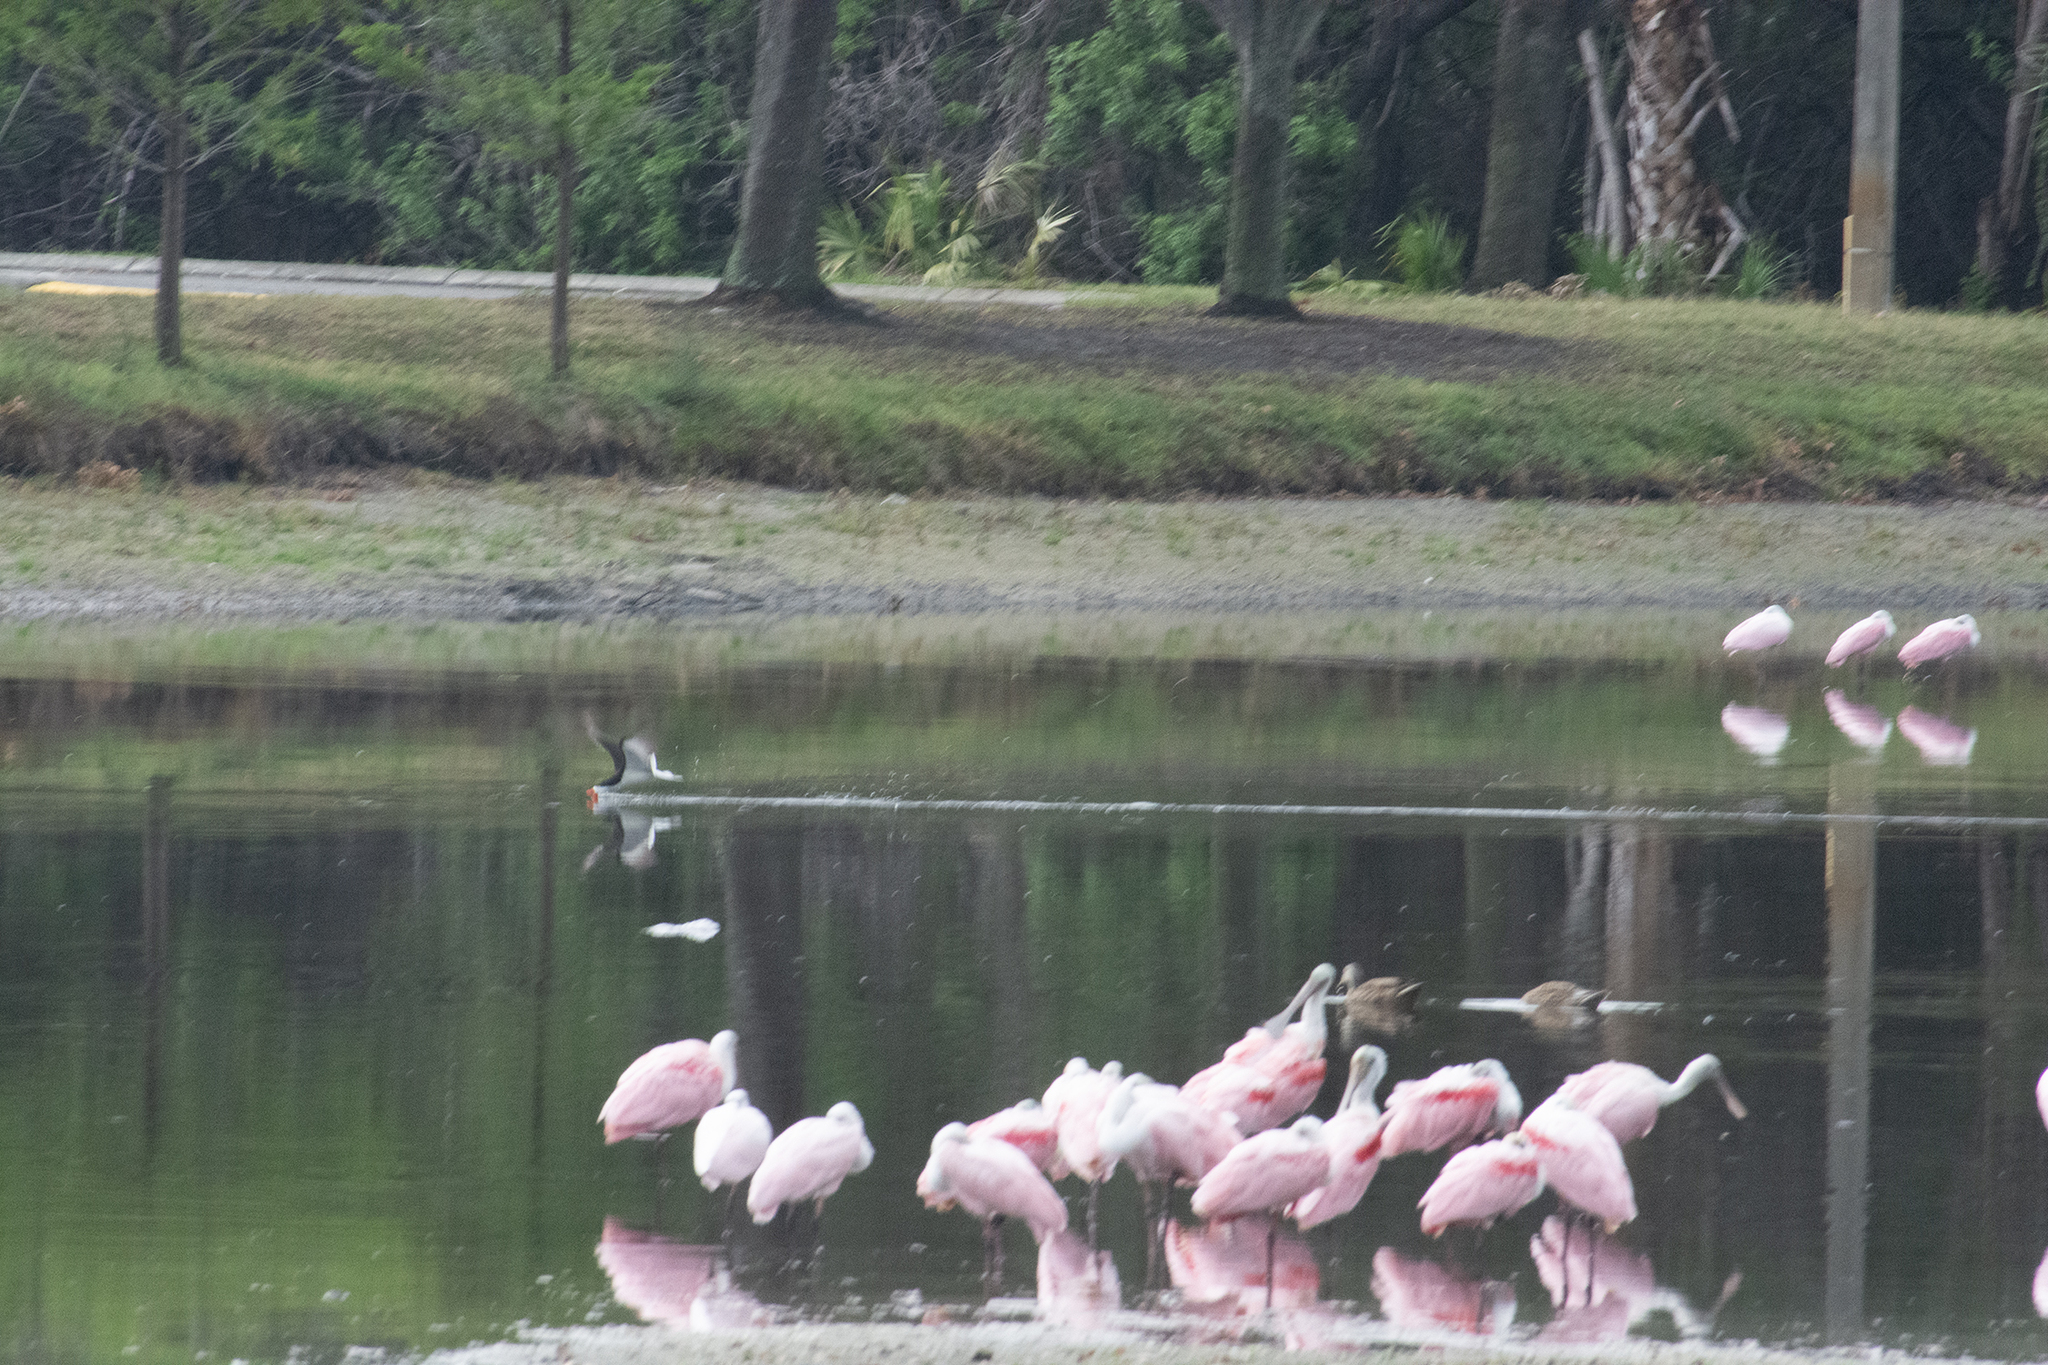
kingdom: Animalia
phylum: Chordata
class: Aves
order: Charadriiformes
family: Laridae
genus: Rynchops
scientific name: Rynchops niger
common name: Black skimmer
